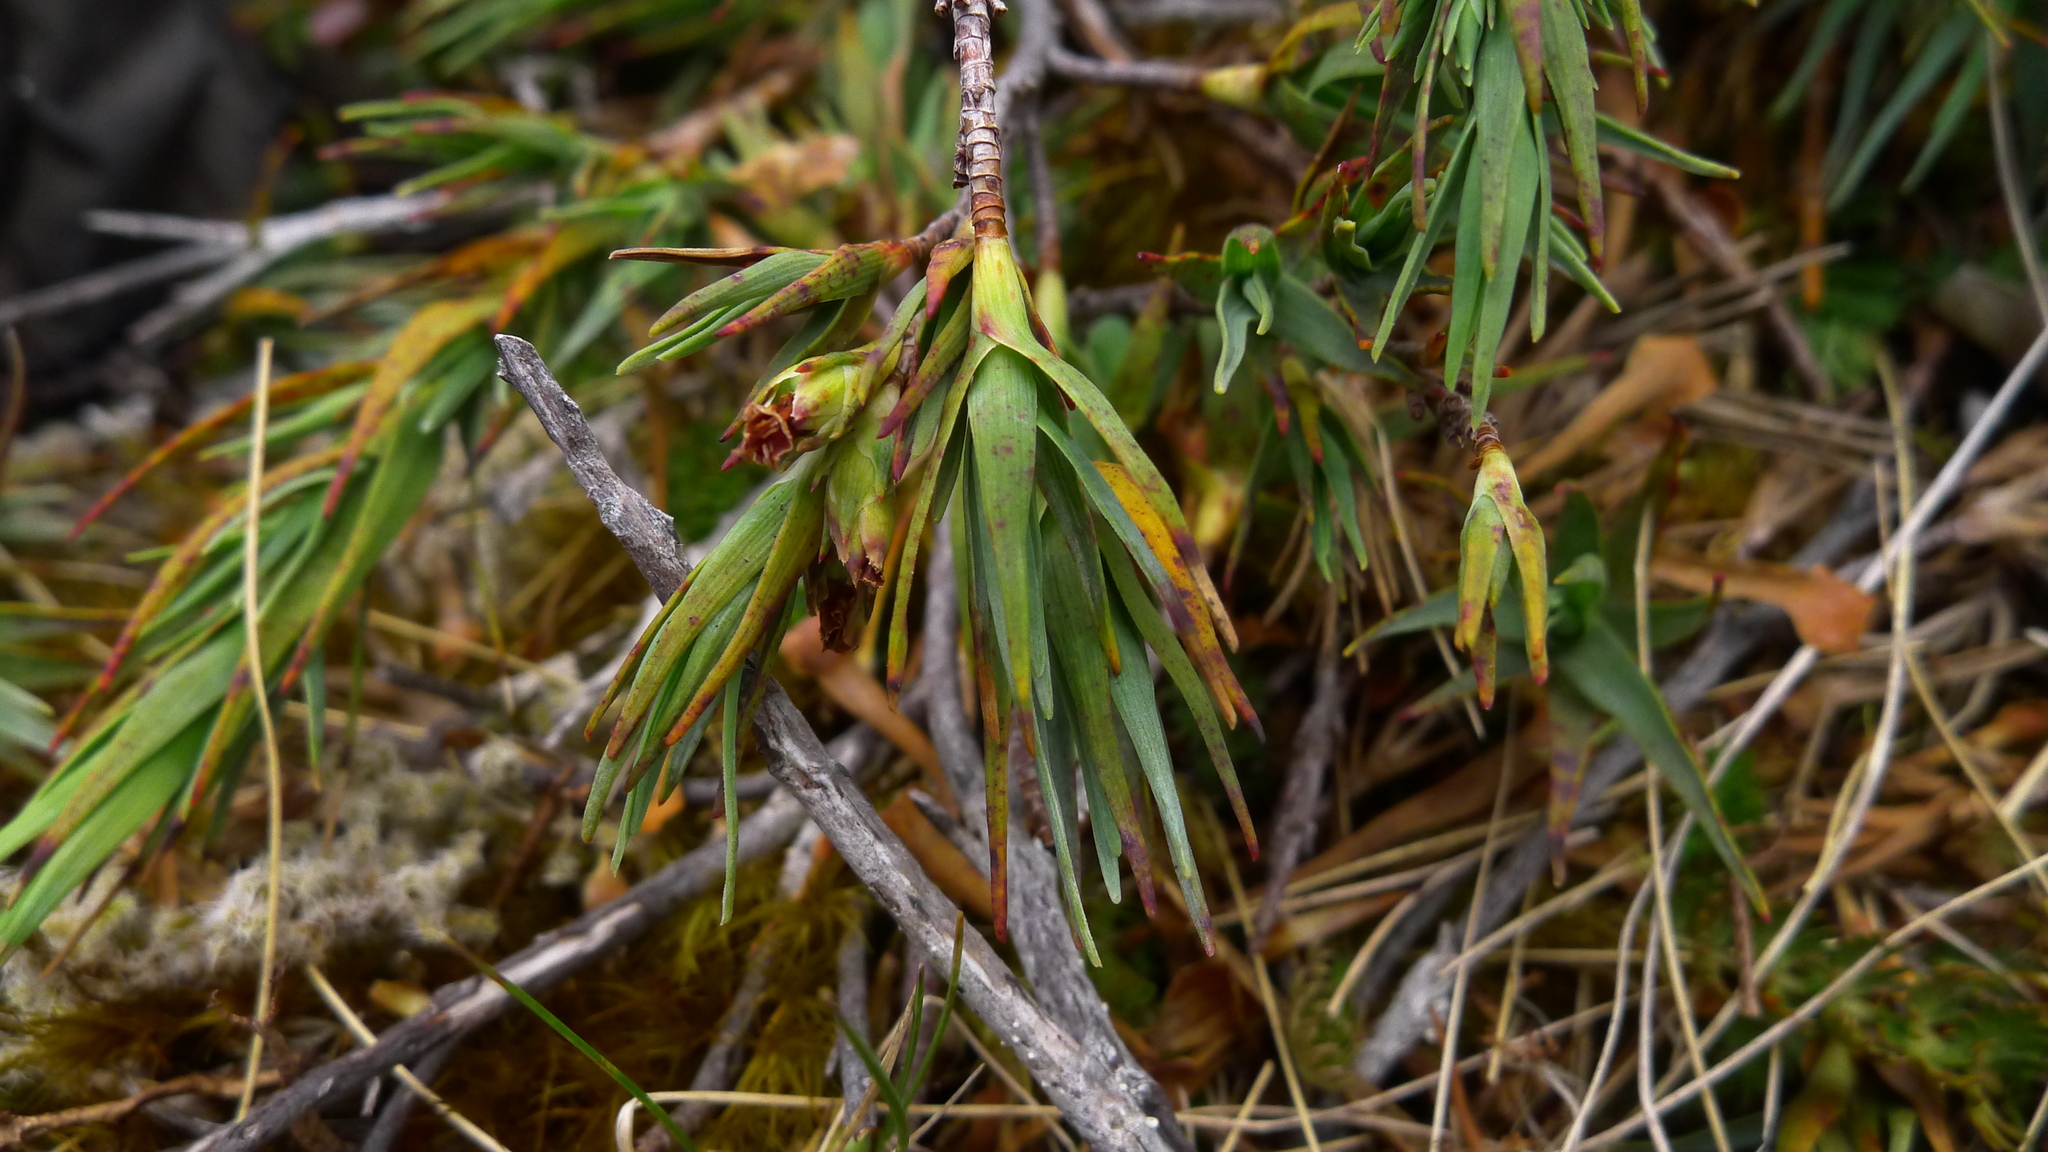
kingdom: Plantae
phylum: Tracheophyta
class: Magnoliopsida
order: Ericales
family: Ericaceae
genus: Dracophyllum
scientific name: Dracophyllum kirkii
